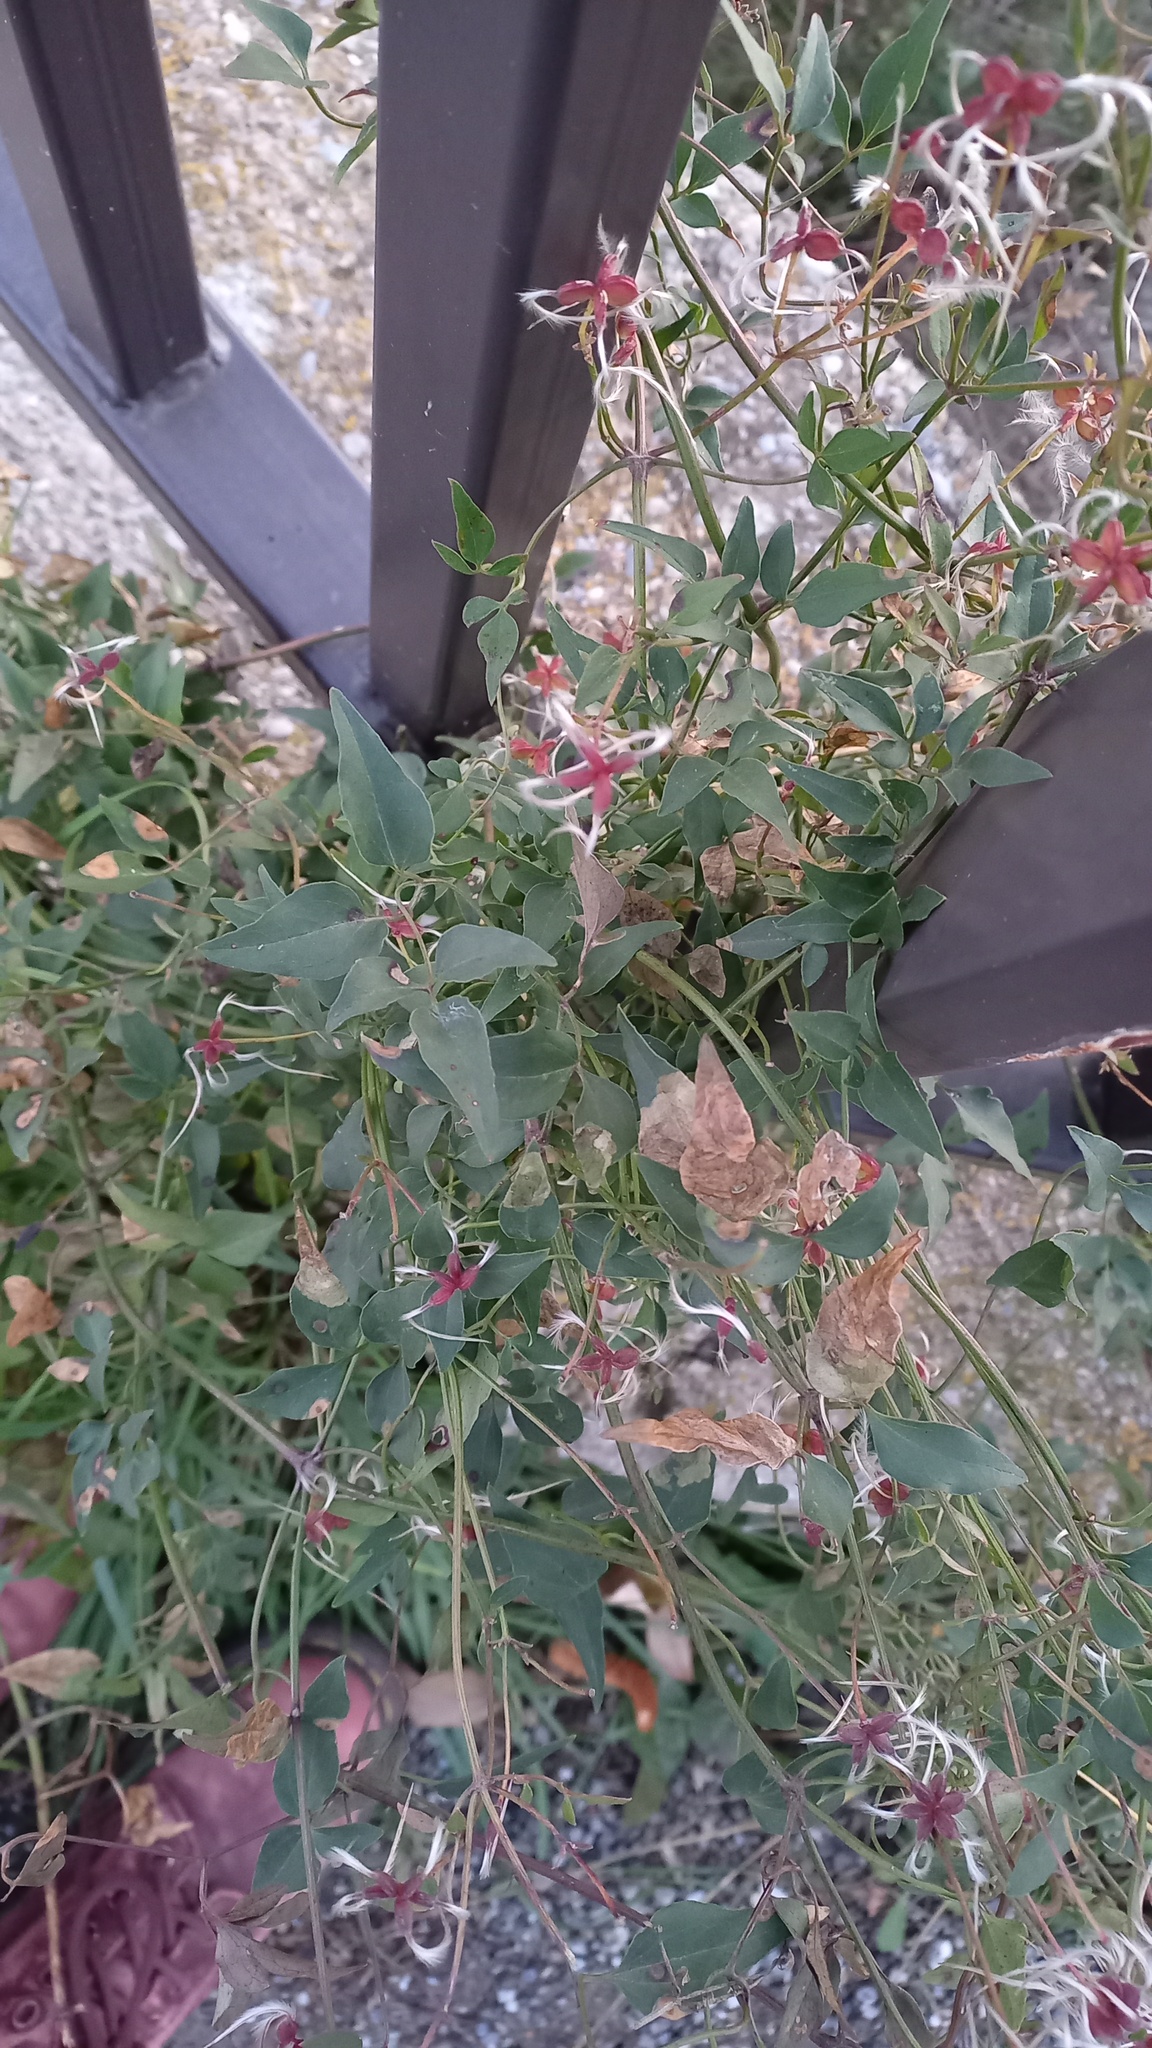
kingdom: Plantae
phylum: Tracheophyta
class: Magnoliopsida
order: Ranunculales
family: Ranunculaceae
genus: Clematis
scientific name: Clematis flammula
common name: Virgin's-bower
